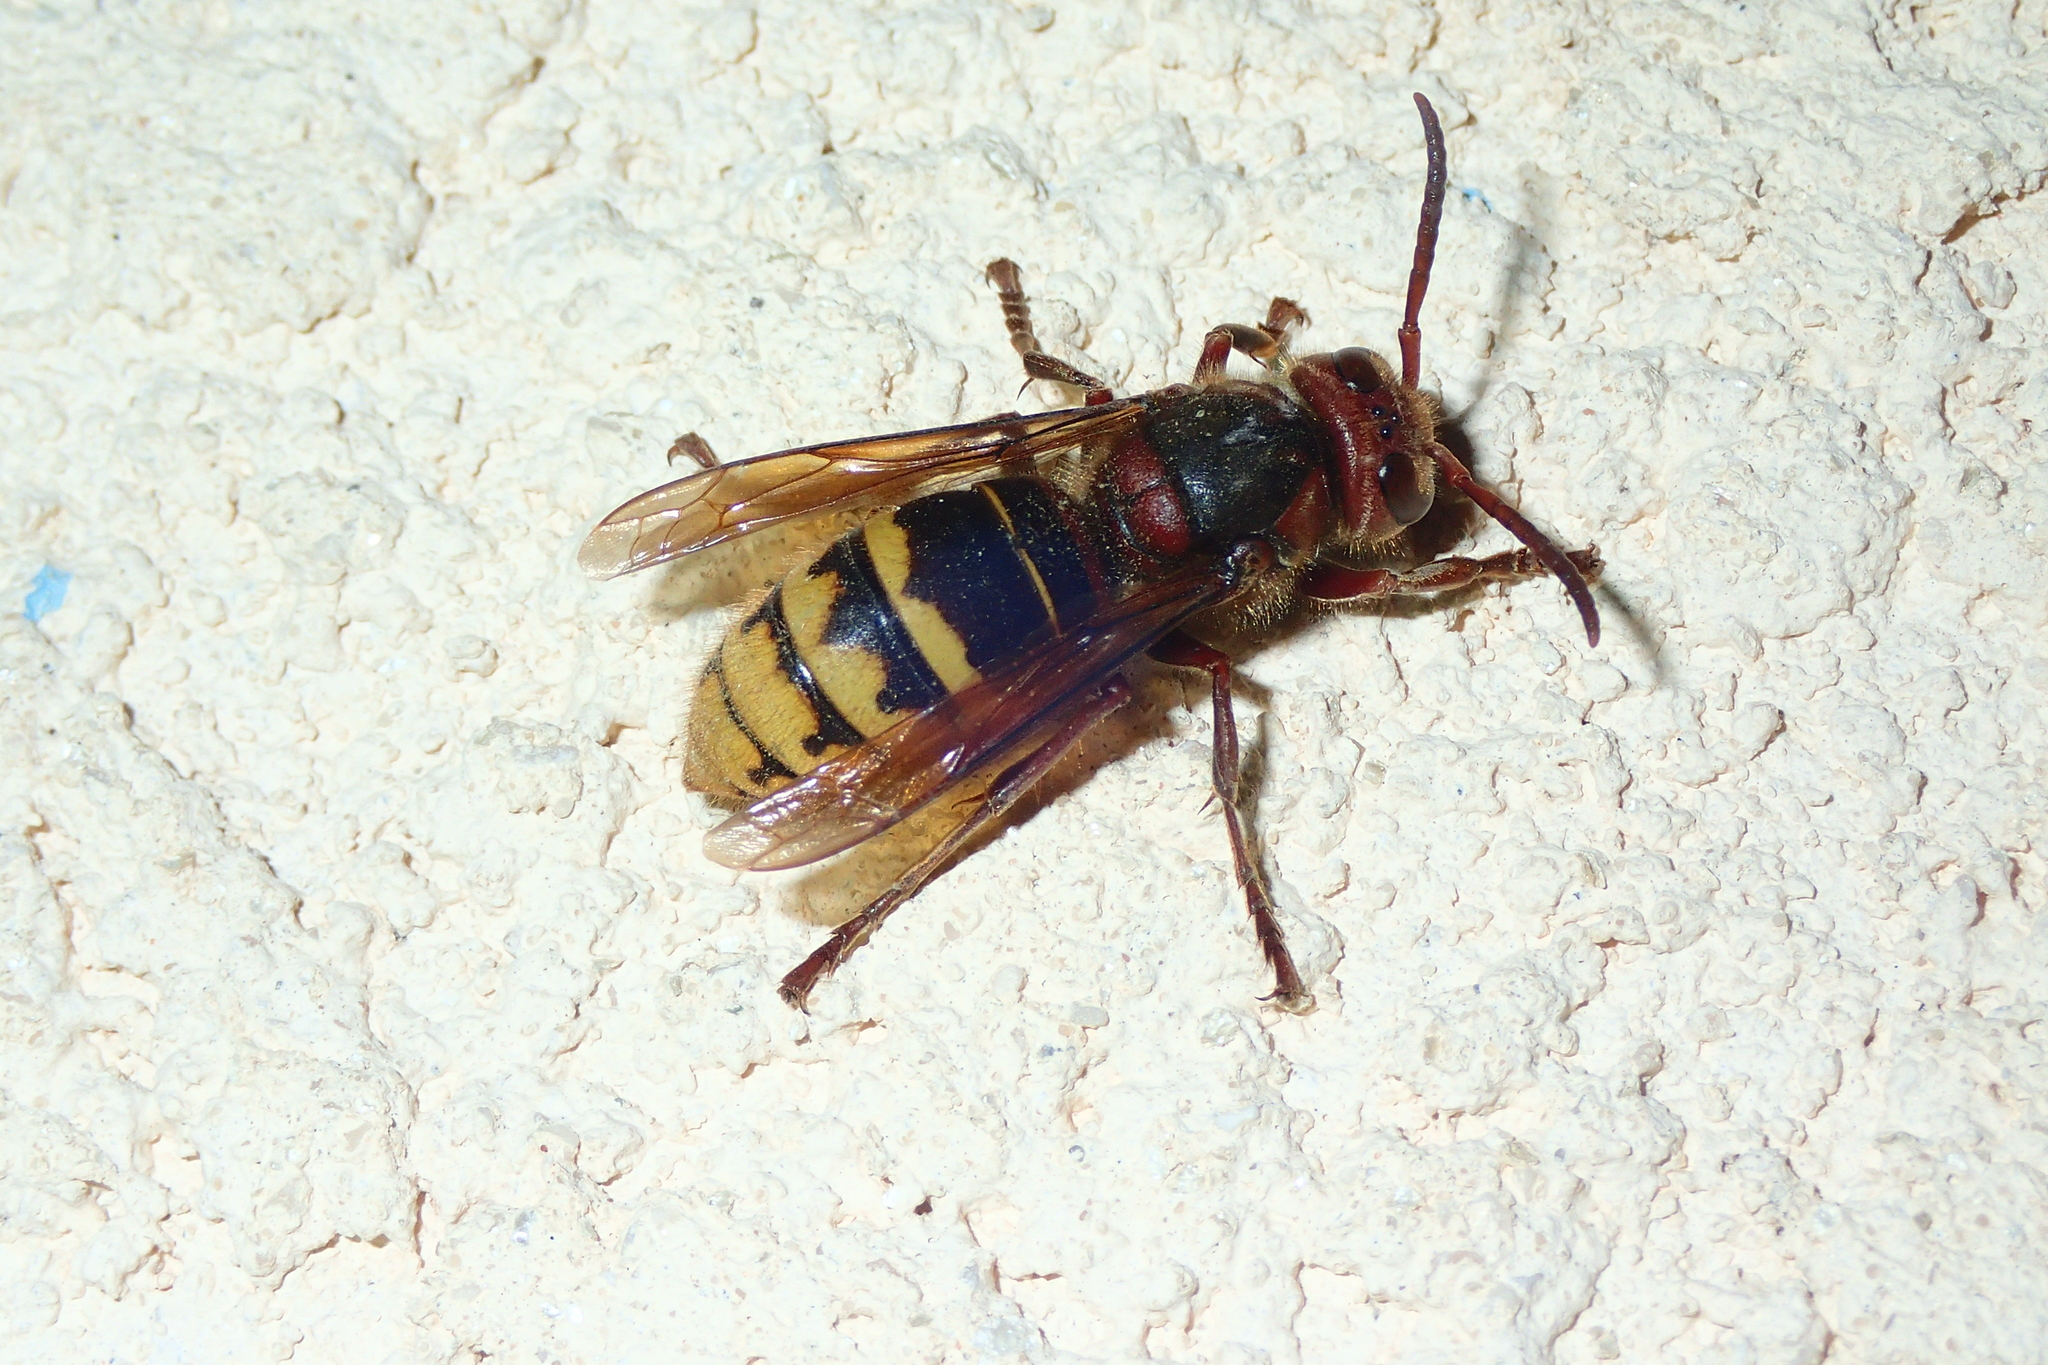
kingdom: Animalia
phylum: Arthropoda
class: Insecta
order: Hymenoptera
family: Vespidae
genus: Vespa
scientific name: Vespa crabro
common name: Hornet
